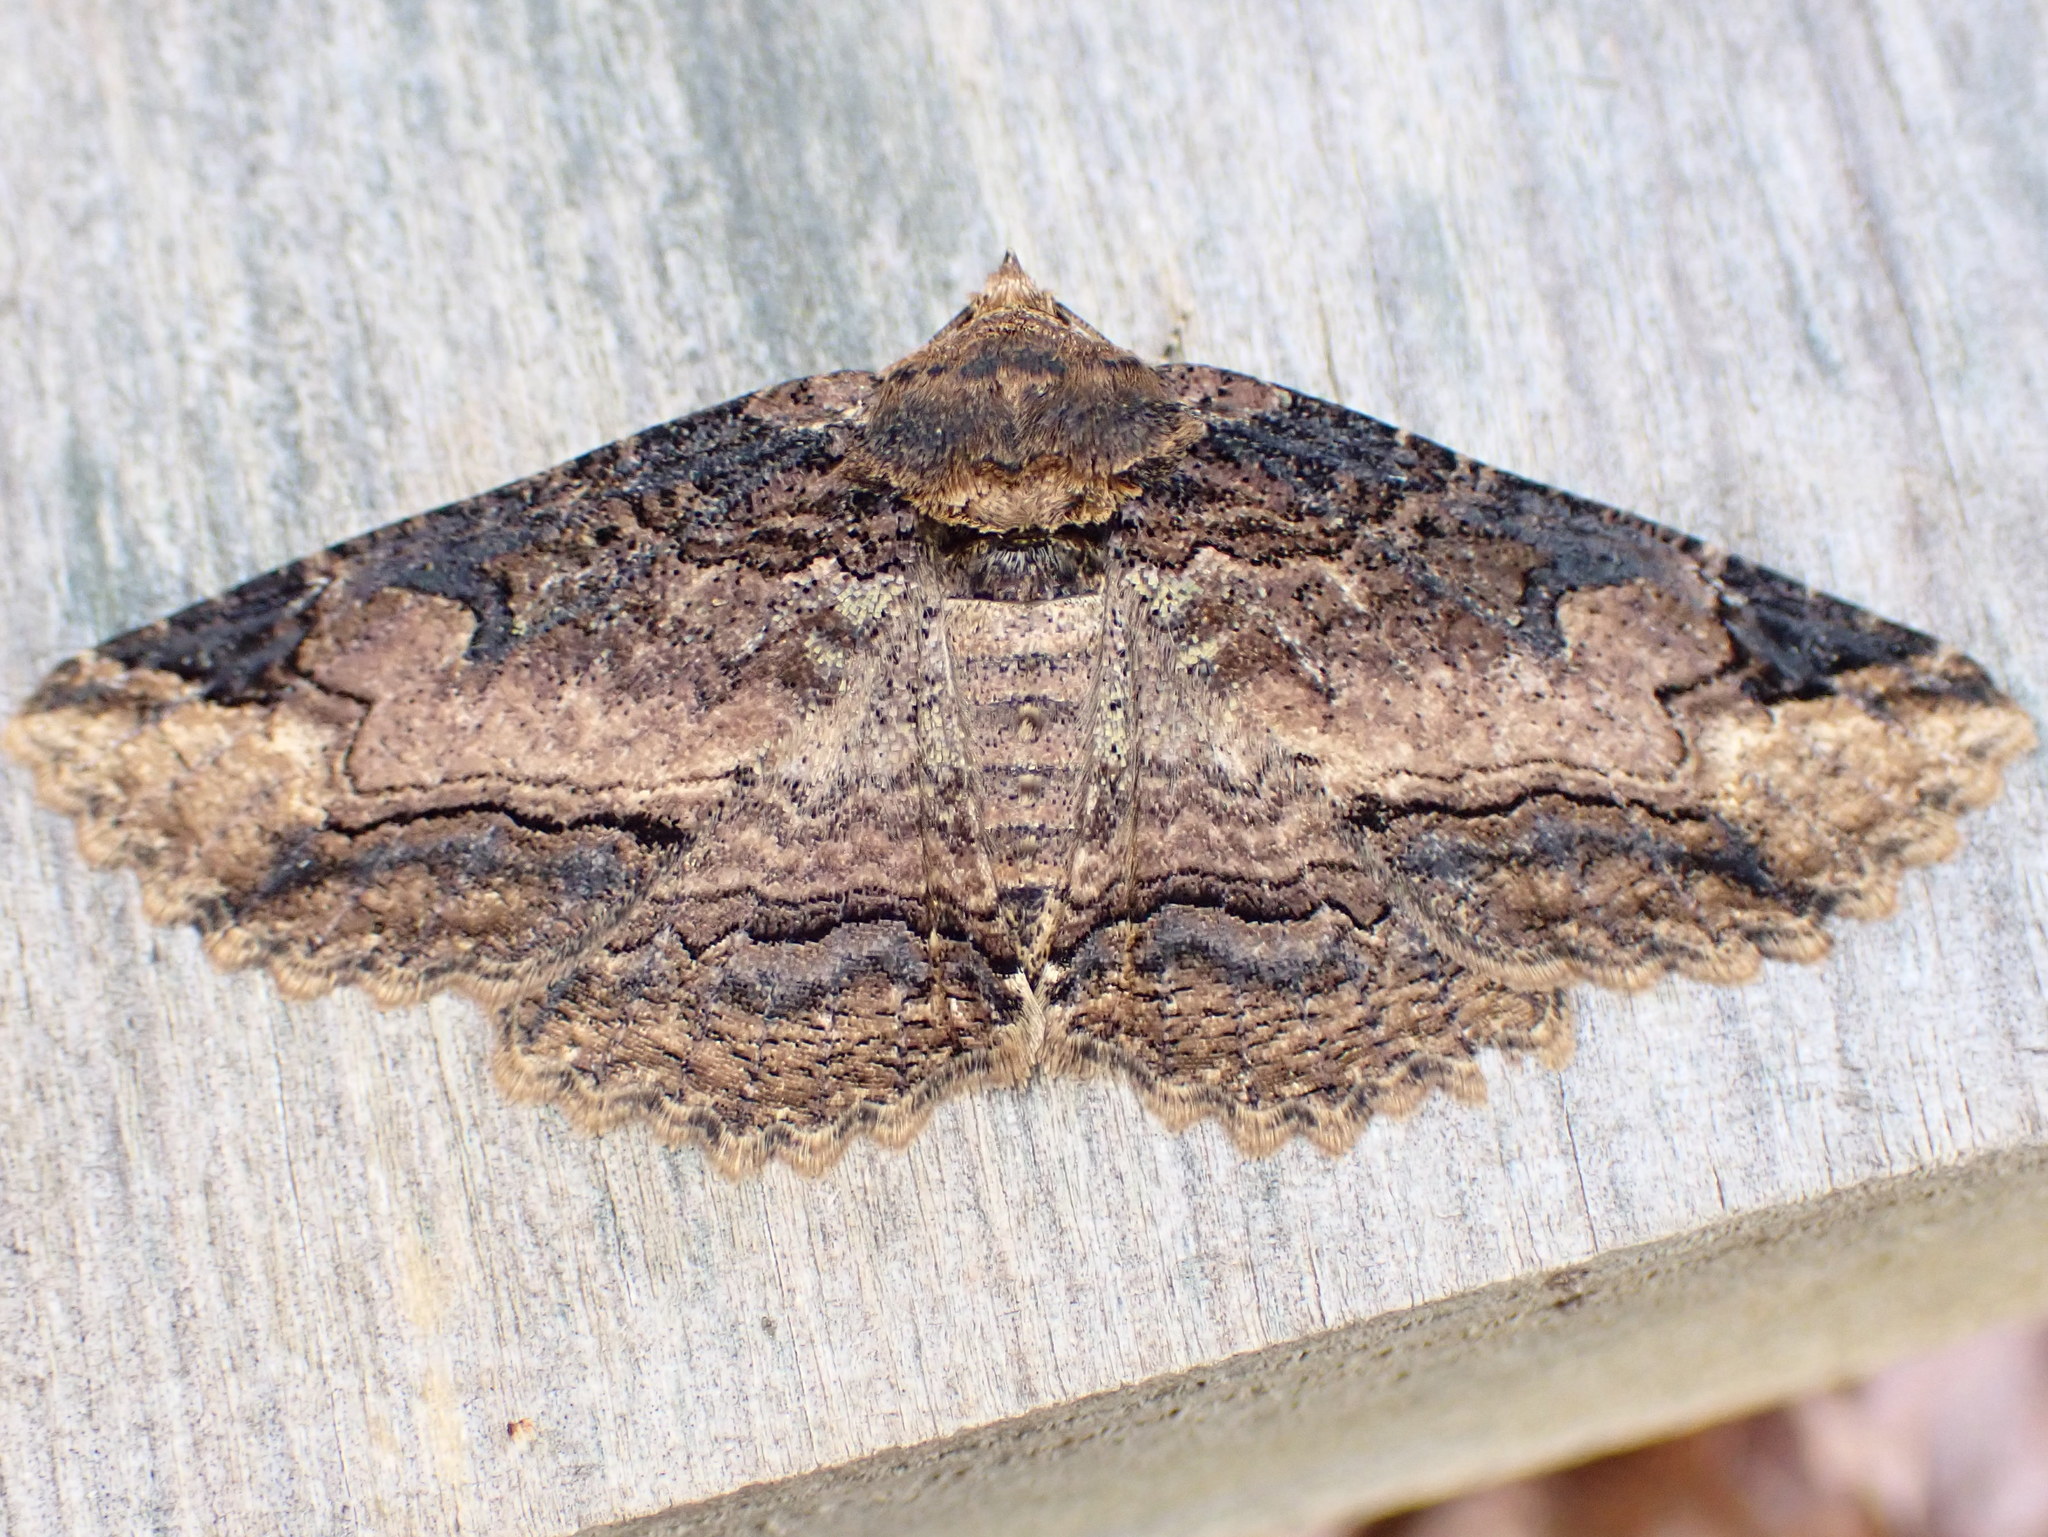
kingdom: Animalia
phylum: Arthropoda
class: Insecta
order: Lepidoptera
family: Erebidae
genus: Zale
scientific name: Zale minerea
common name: Colorful zale moth
